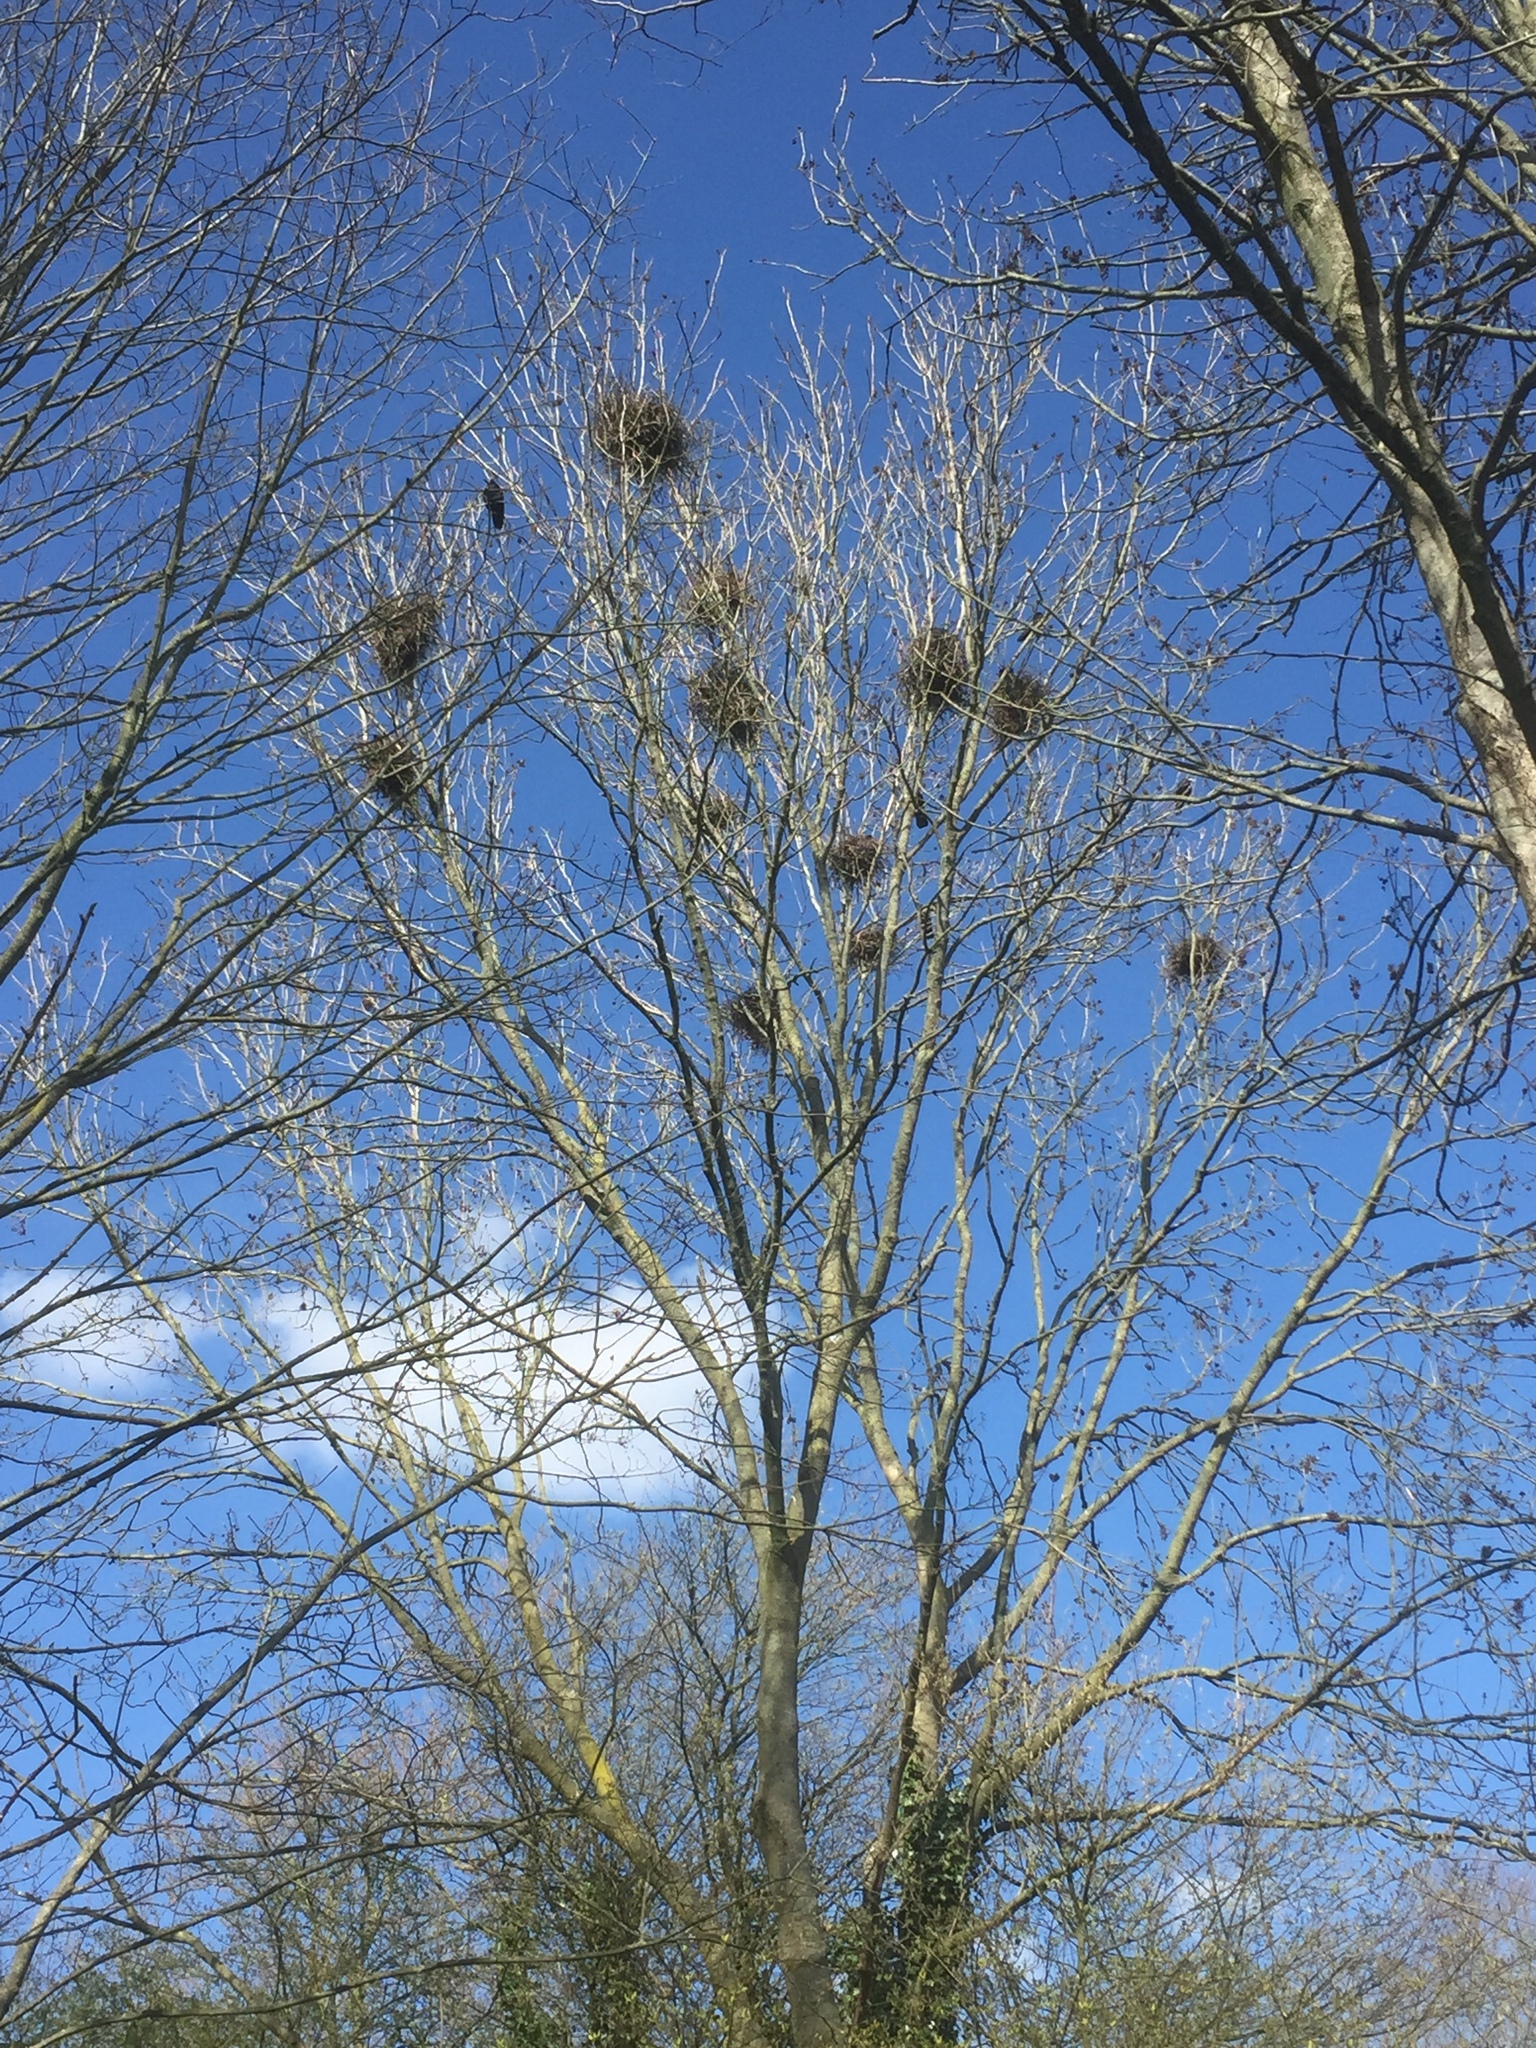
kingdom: Animalia
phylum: Chordata
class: Aves
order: Passeriformes
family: Corvidae
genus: Corvus
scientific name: Corvus frugilegus
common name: Rook
